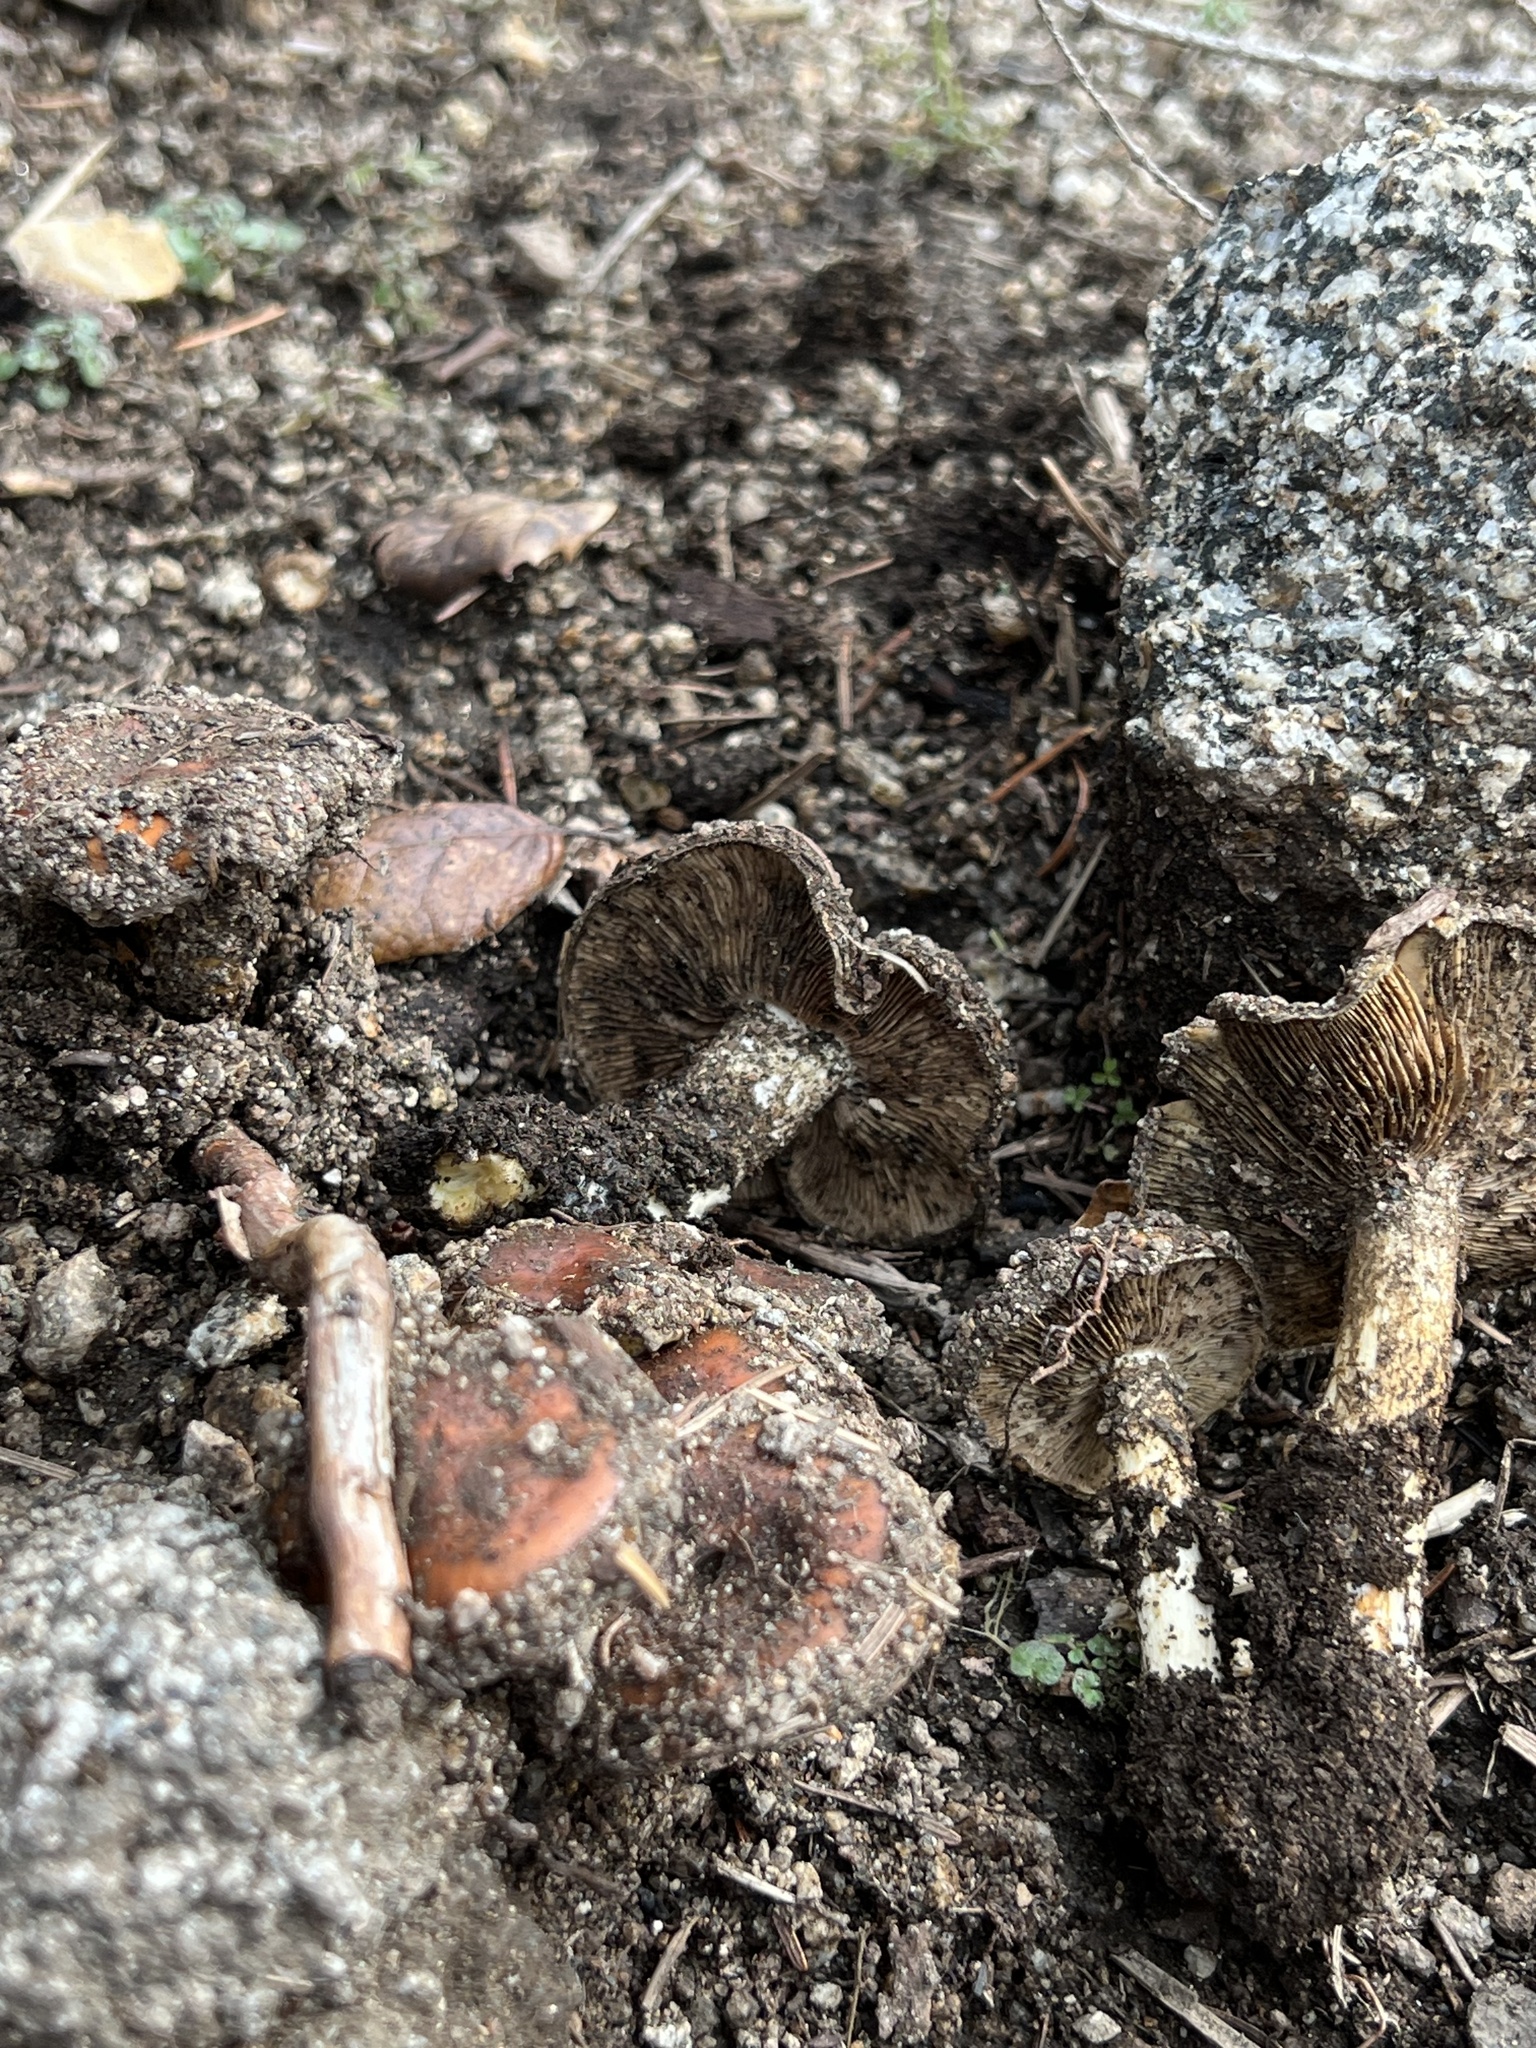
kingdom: Fungi
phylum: Basidiomycota
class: Agaricomycetes
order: Agaricales
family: Strophariaceae
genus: Pholiota
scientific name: Pholiota velaglutinosa
